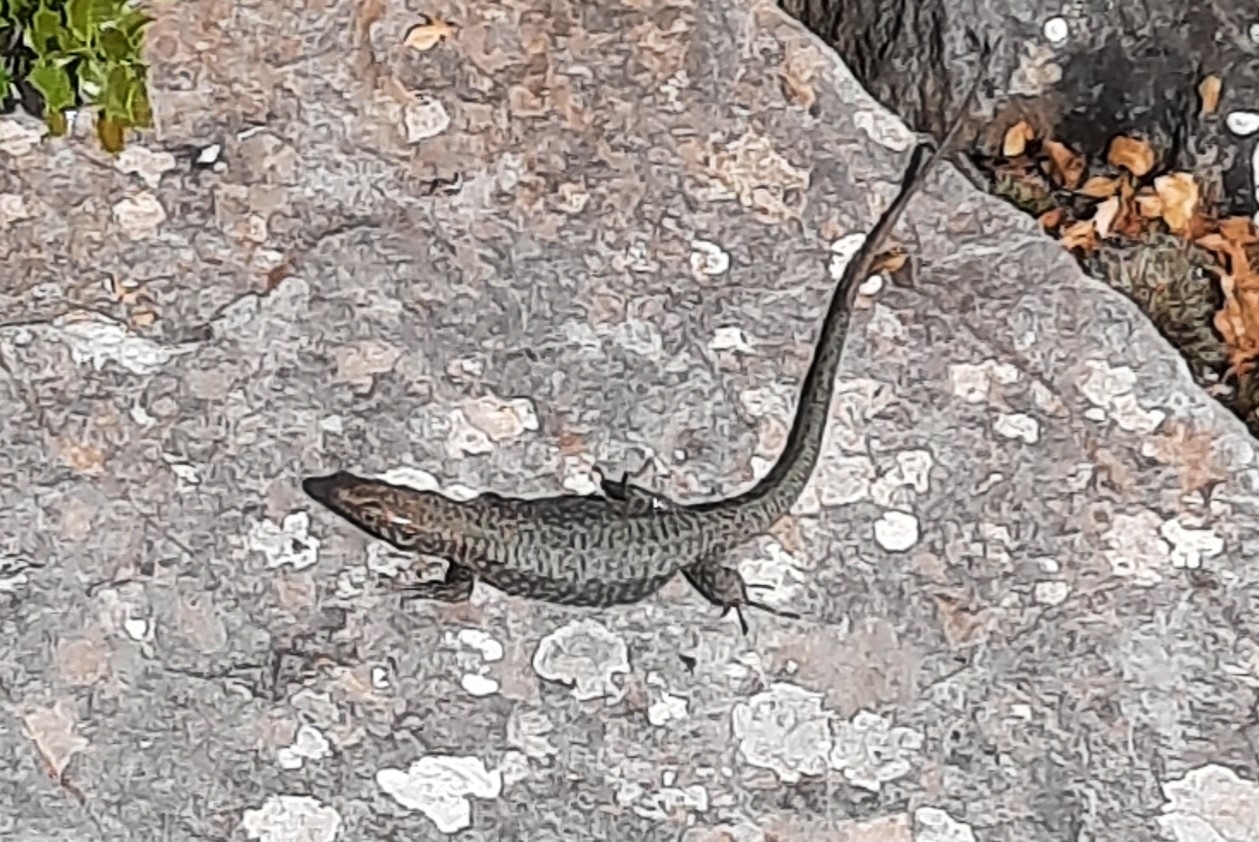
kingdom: Animalia
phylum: Chordata
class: Squamata
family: Lacertidae
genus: Hellenolacerta
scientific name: Hellenolacerta graeca
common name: Greek rock lizard
